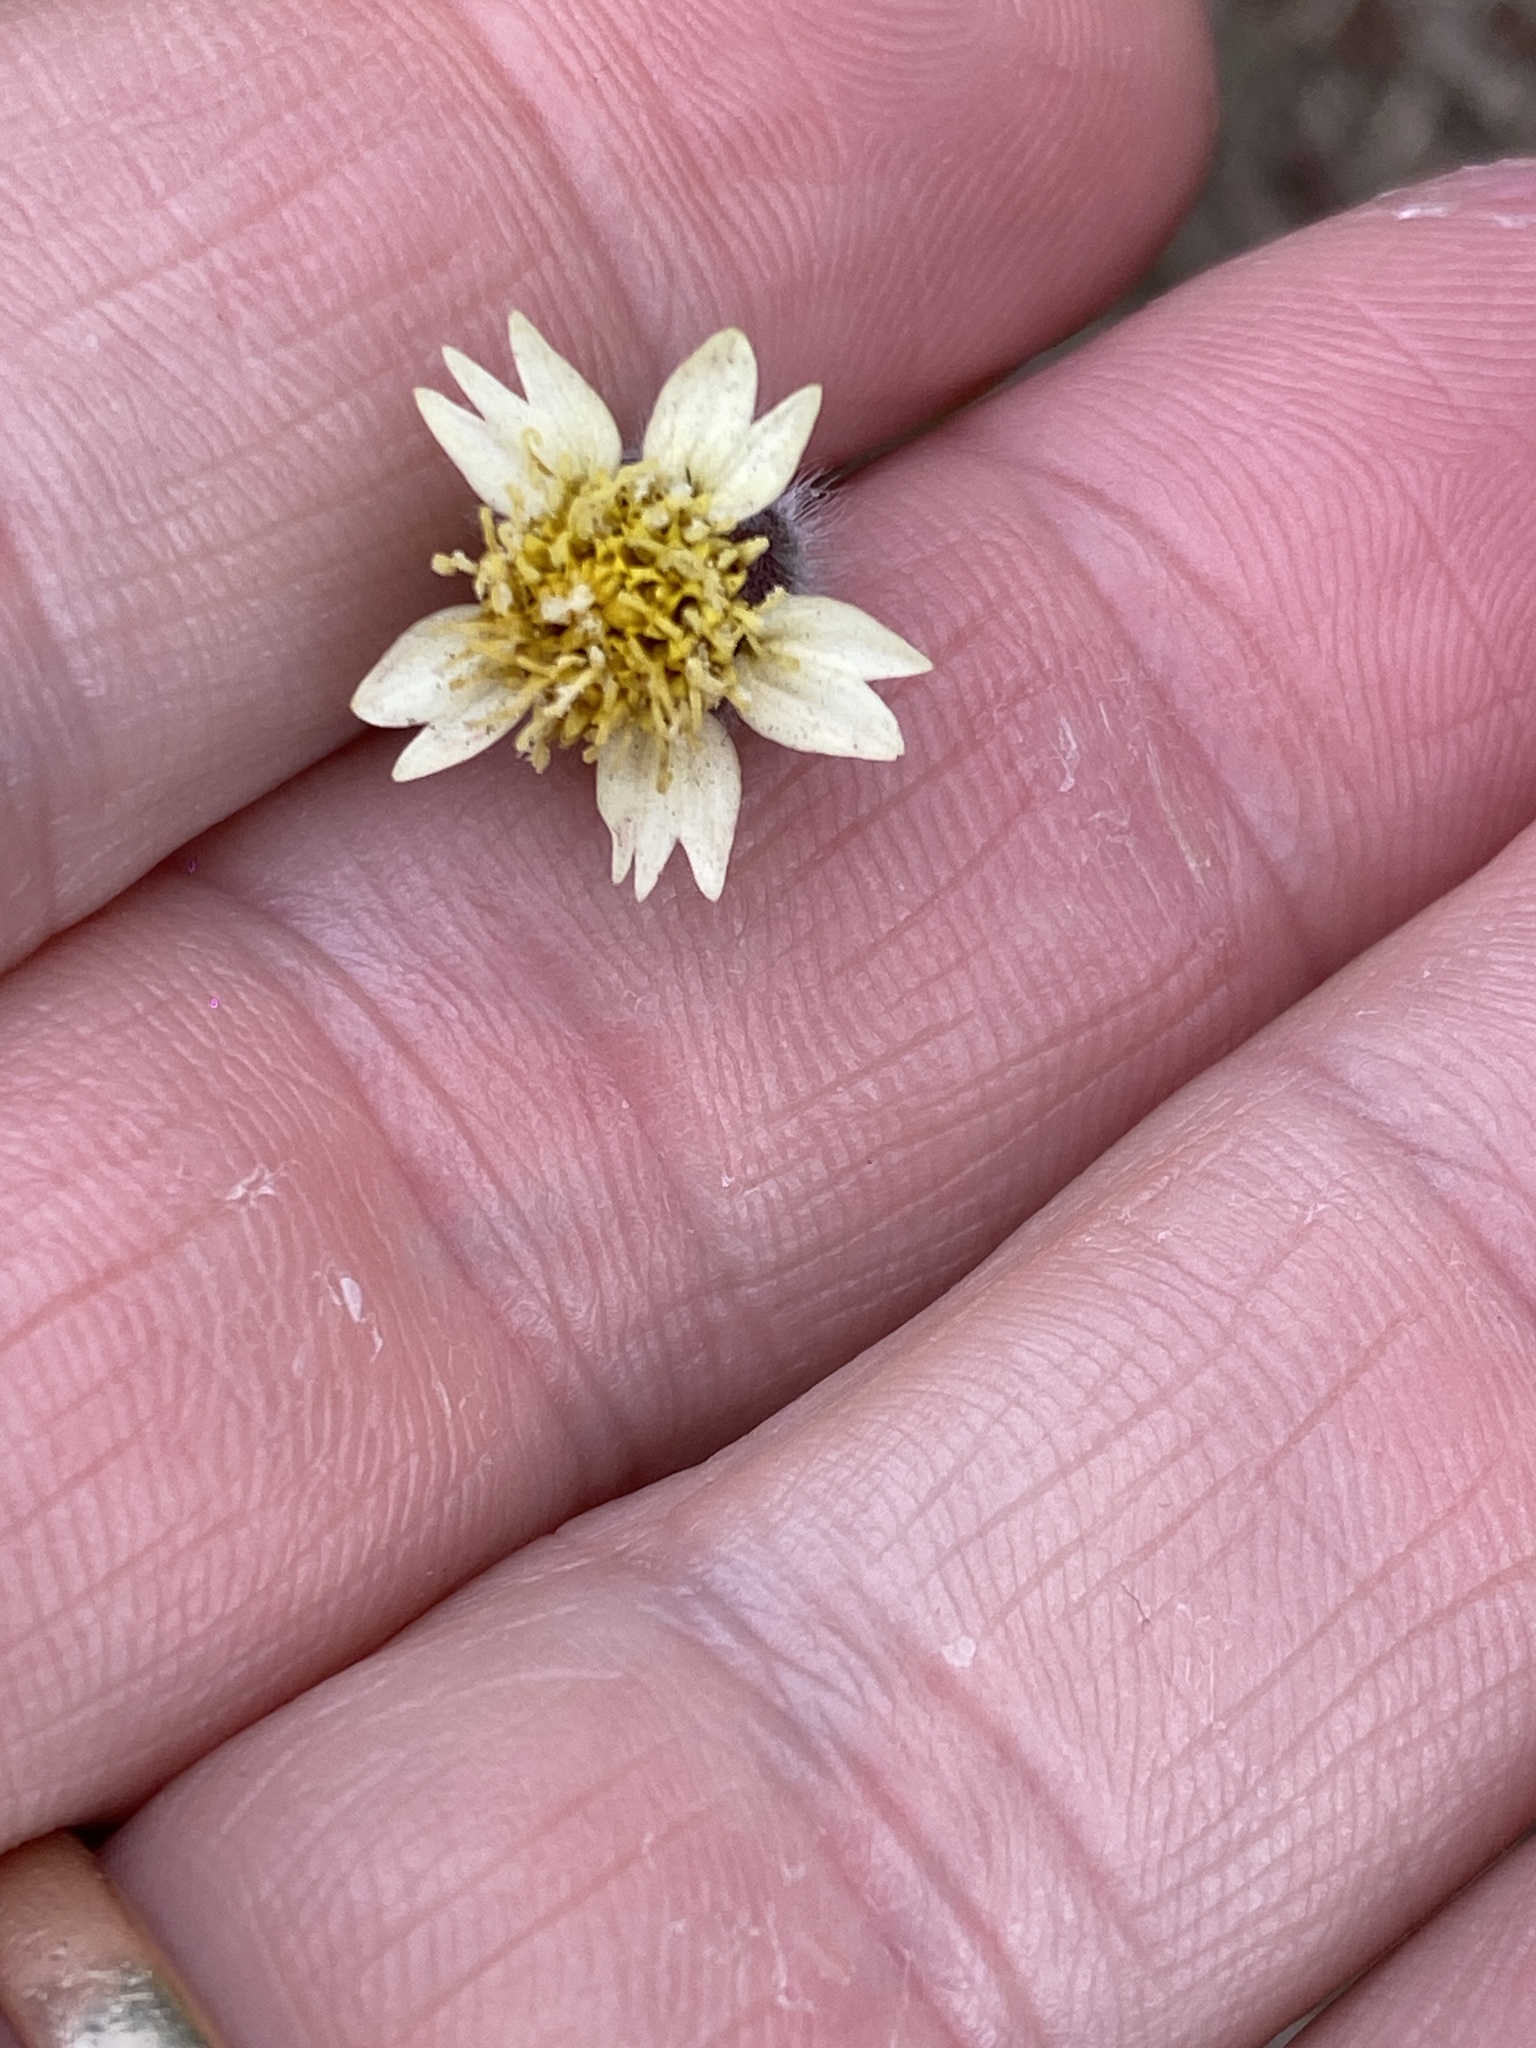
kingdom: Plantae
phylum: Tracheophyta
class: Magnoliopsida
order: Asterales
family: Asteraceae
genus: Tridax
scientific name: Tridax procumbens
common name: Coatbuttons
